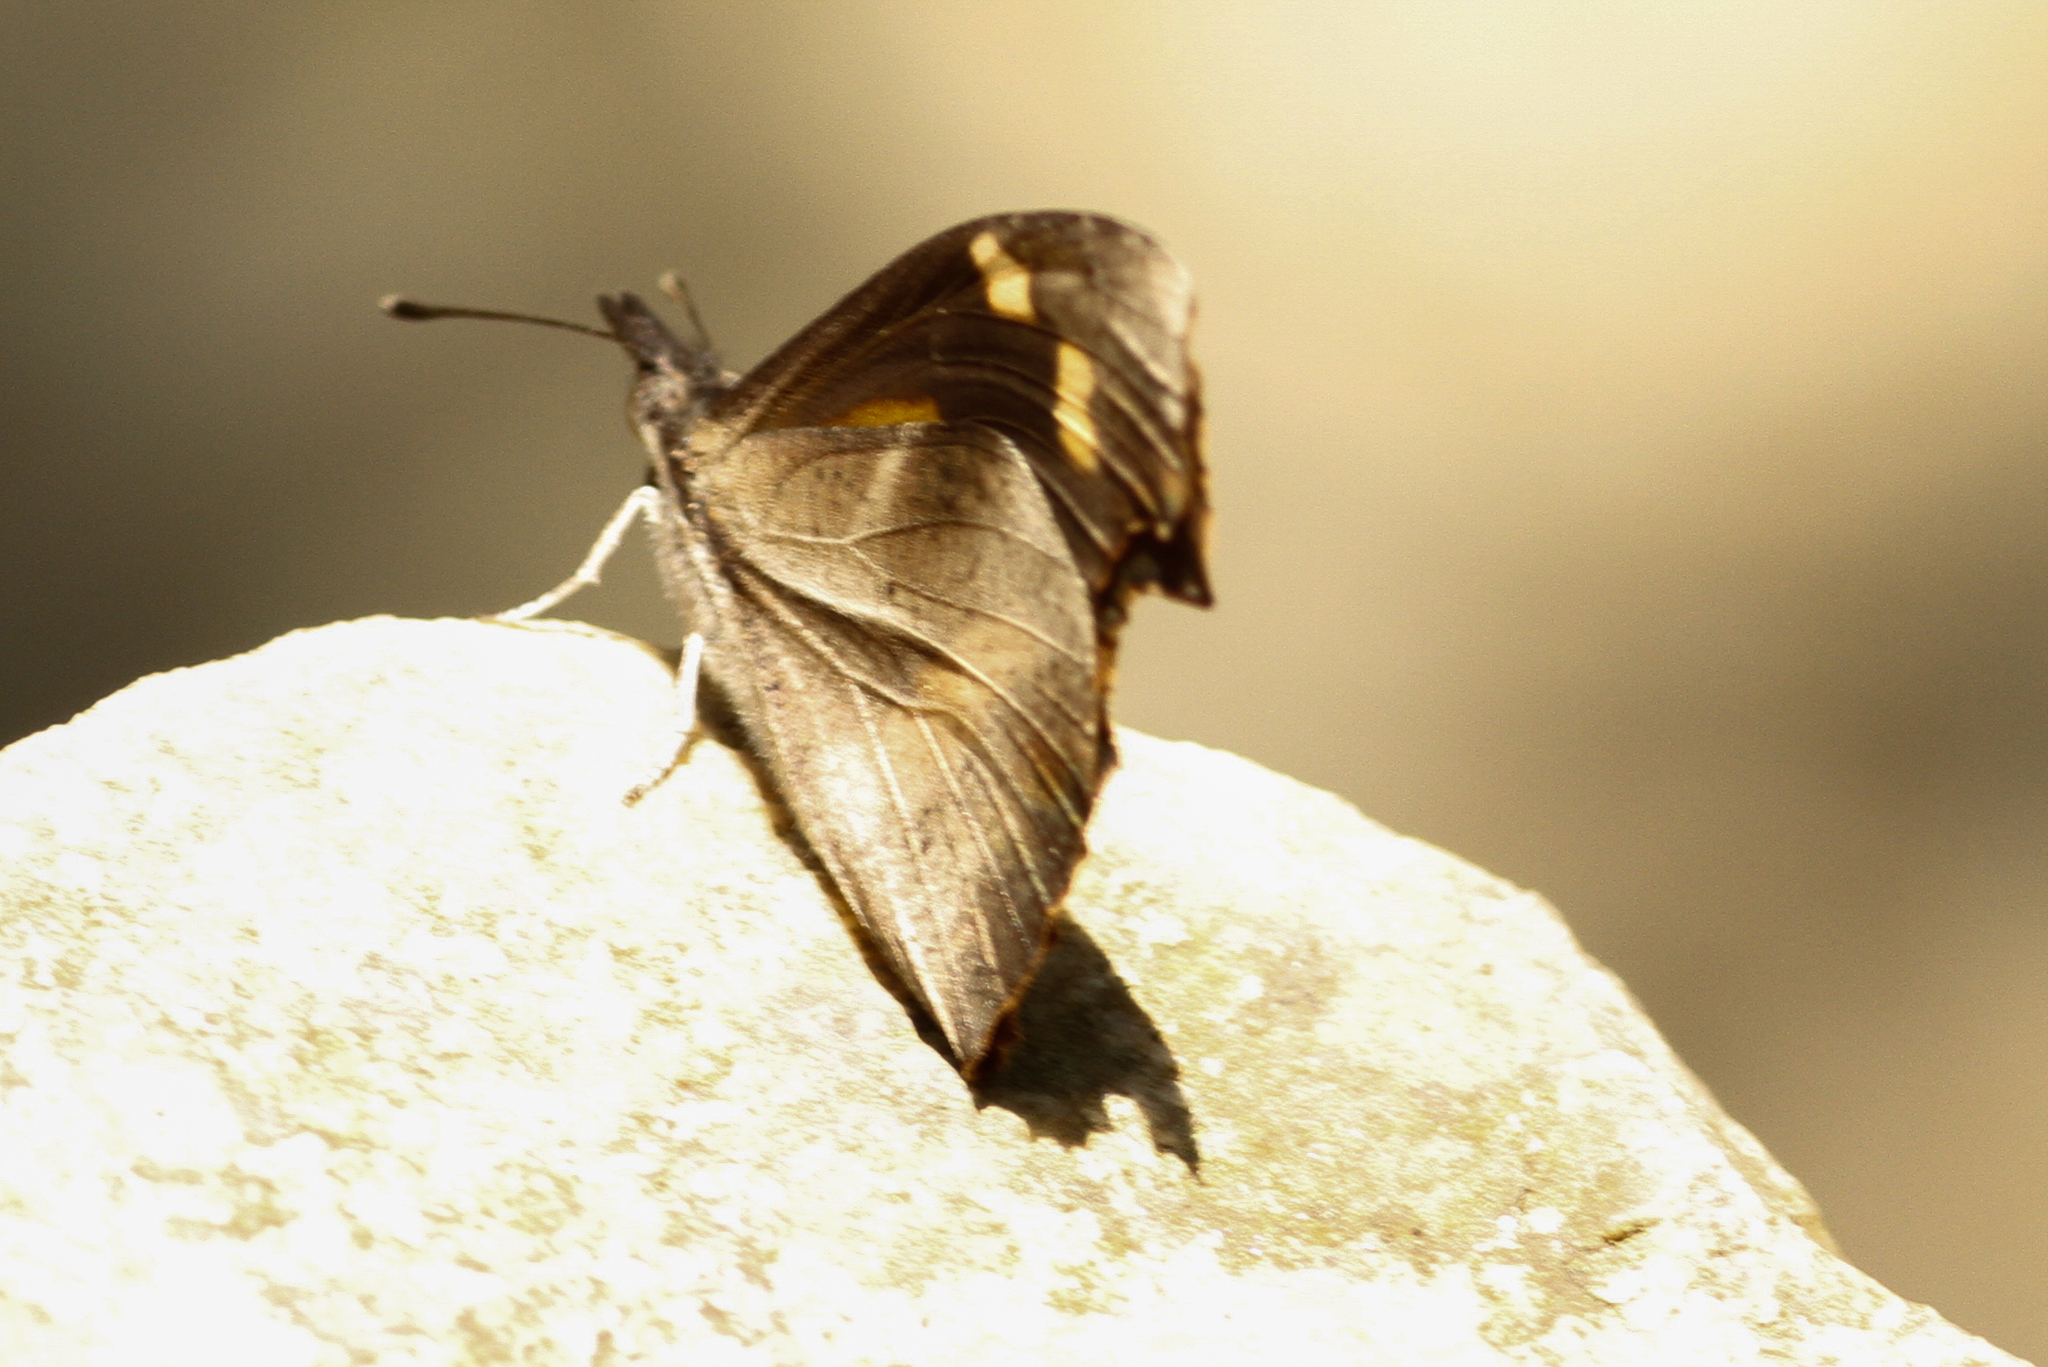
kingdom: Animalia
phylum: Arthropoda
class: Insecta
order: Lepidoptera
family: Nymphalidae
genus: Libythea
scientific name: Libythea myrrha
